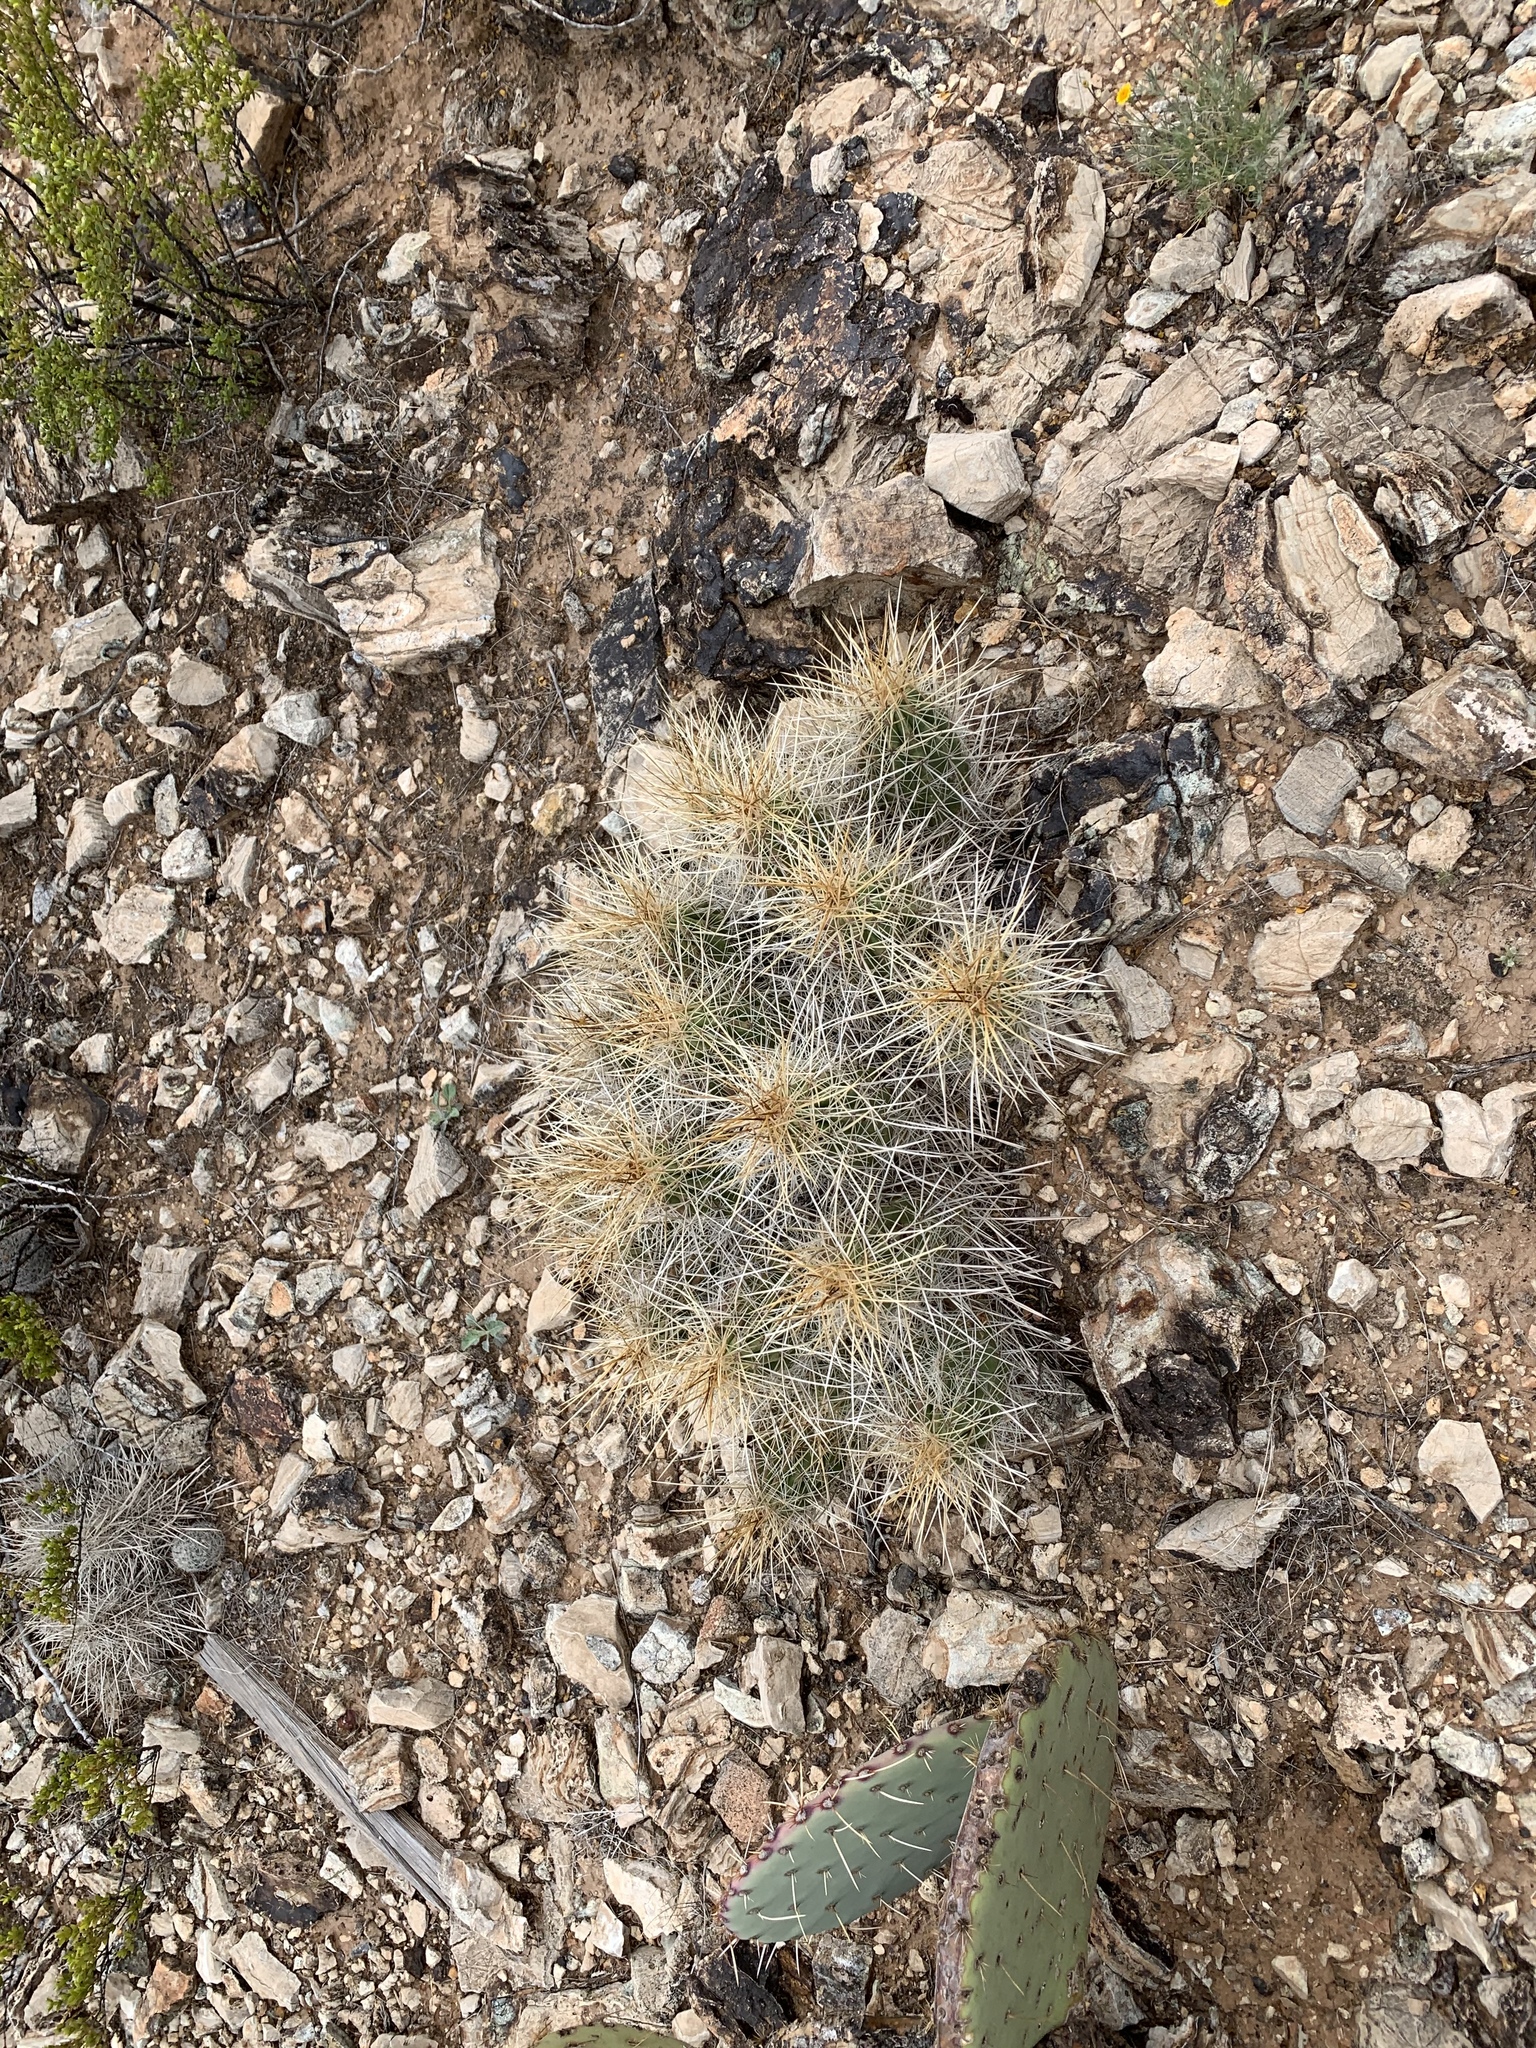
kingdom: Plantae
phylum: Tracheophyta
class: Magnoliopsida
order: Caryophyllales
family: Cactaceae
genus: Echinocereus
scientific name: Echinocereus stramineus
